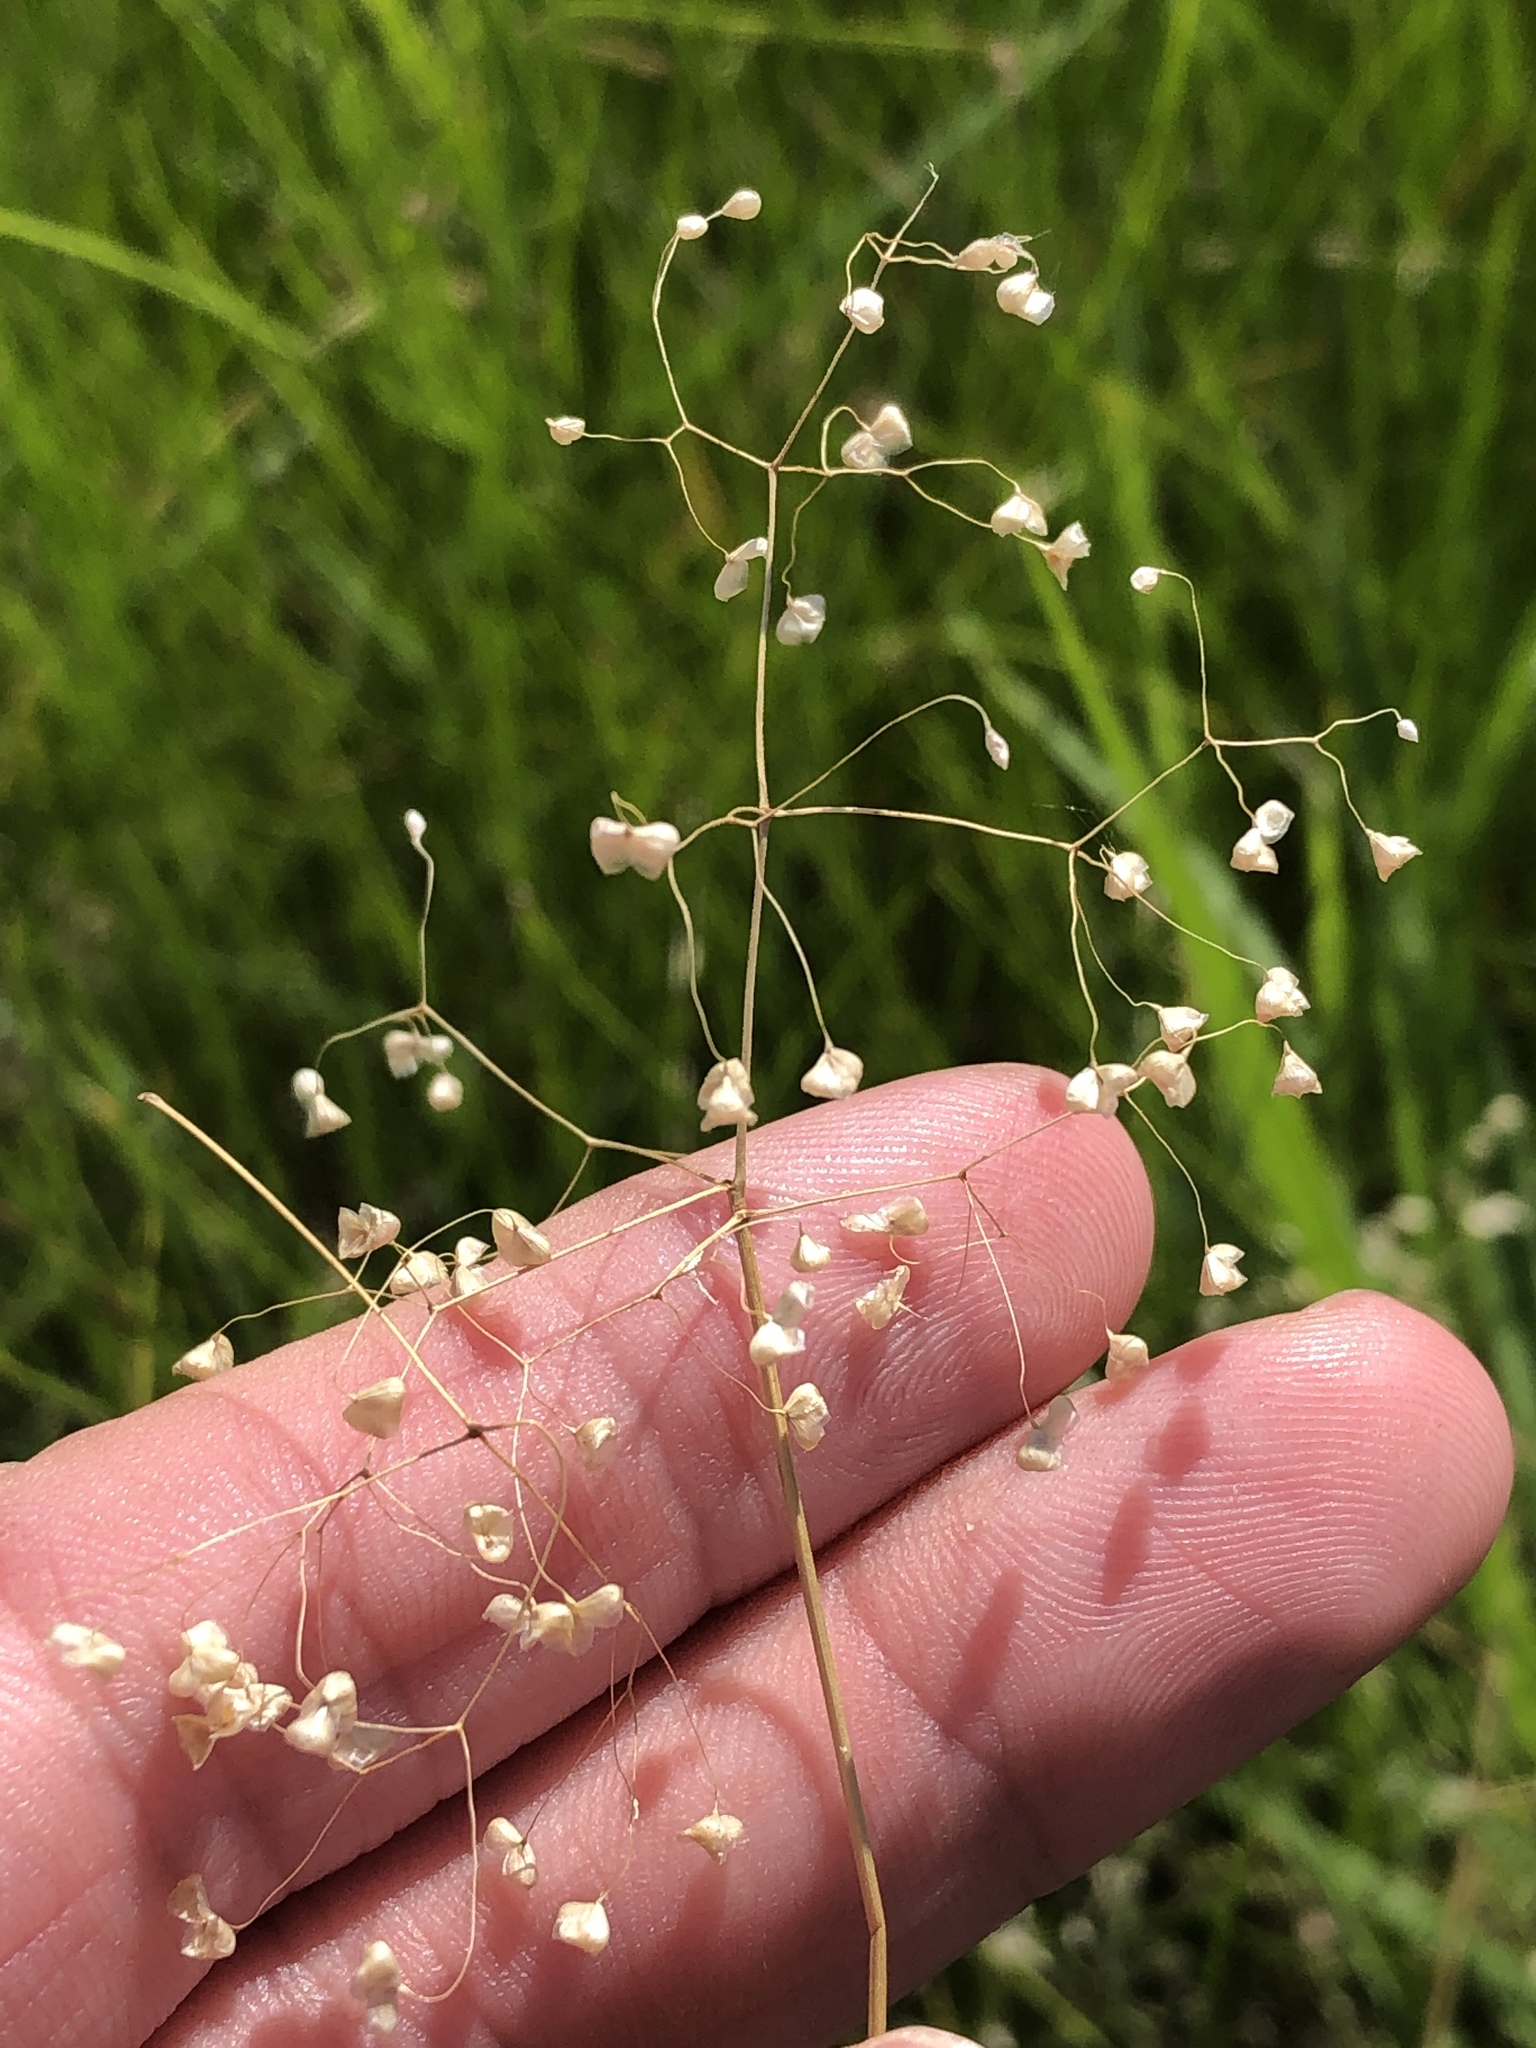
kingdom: Plantae
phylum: Tracheophyta
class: Liliopsida
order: Poales
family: Poaceae
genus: Briza
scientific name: Briza minor
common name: Lesser quaking-grass
